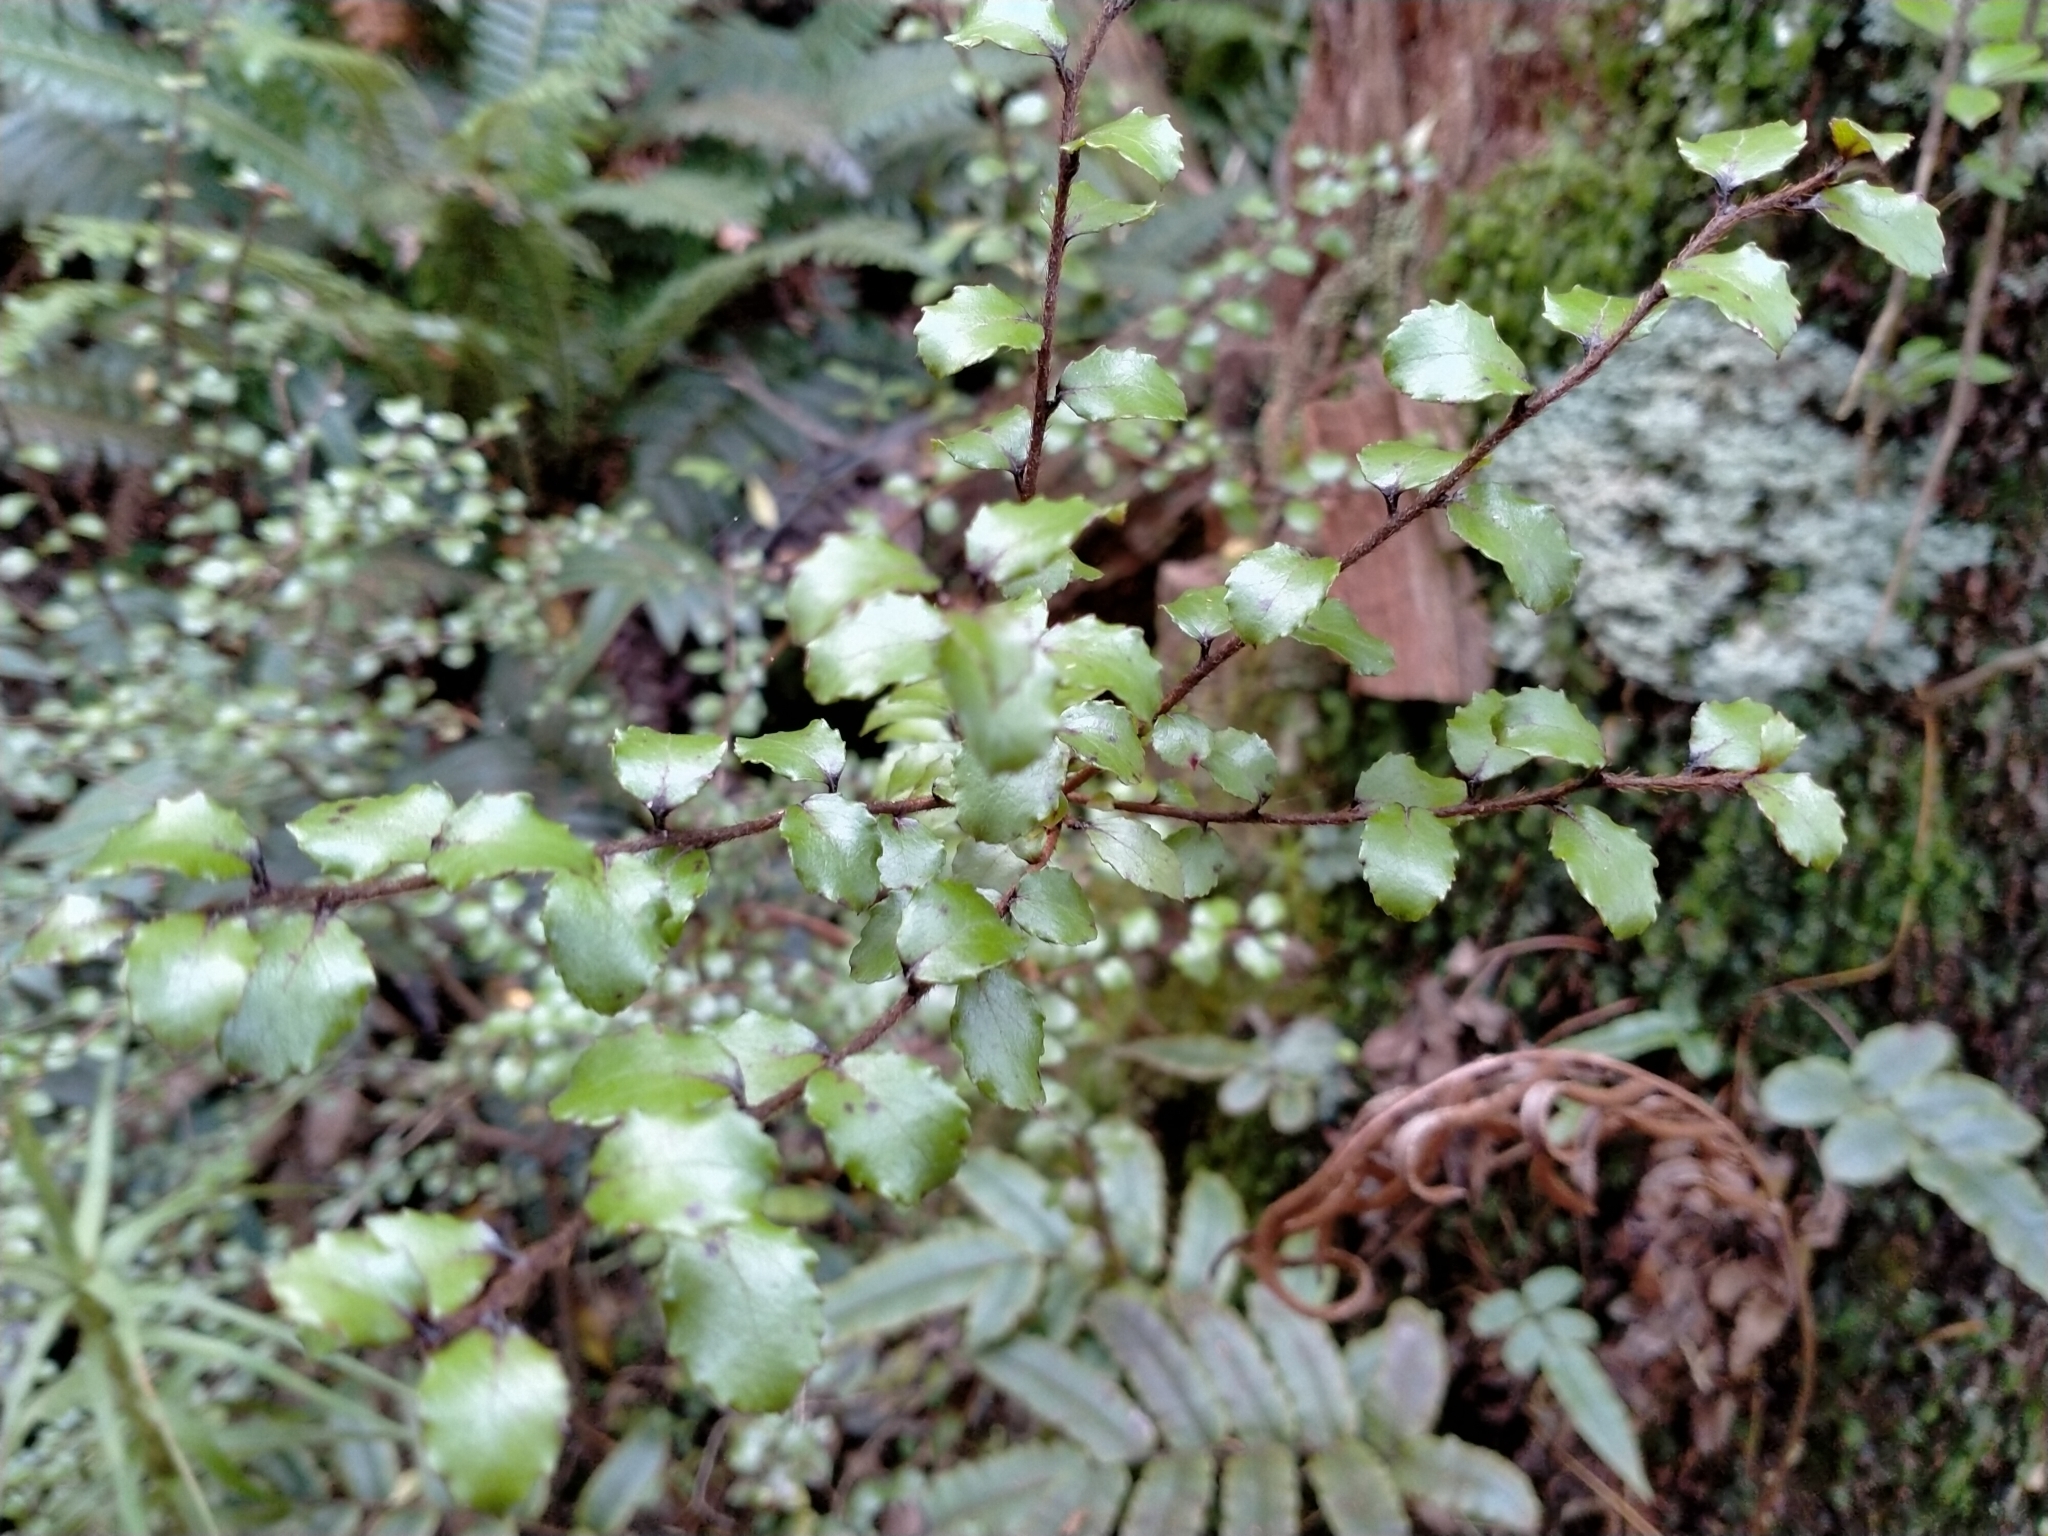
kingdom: Plantae
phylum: Tracheophyta
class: Magnoliopsida
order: Ericales
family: Ericaceae
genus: Gaultheria
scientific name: Gaultheria antipoda
